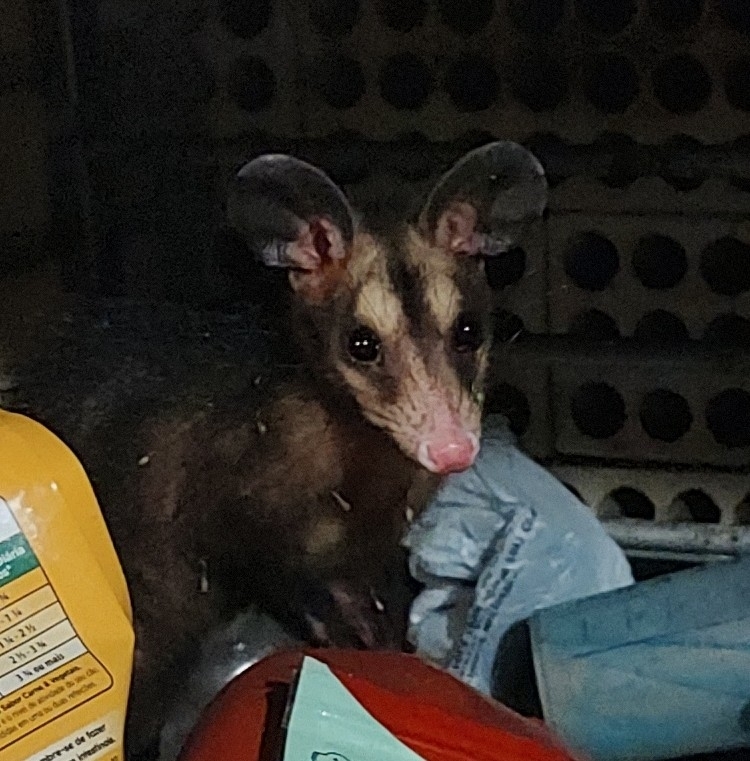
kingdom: Animalia
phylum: Chordata
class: Mammalia
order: Didelphimorphia
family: Didelphidae
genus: Didelphis
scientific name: Didelphis aurita
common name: Big-eared opossum
